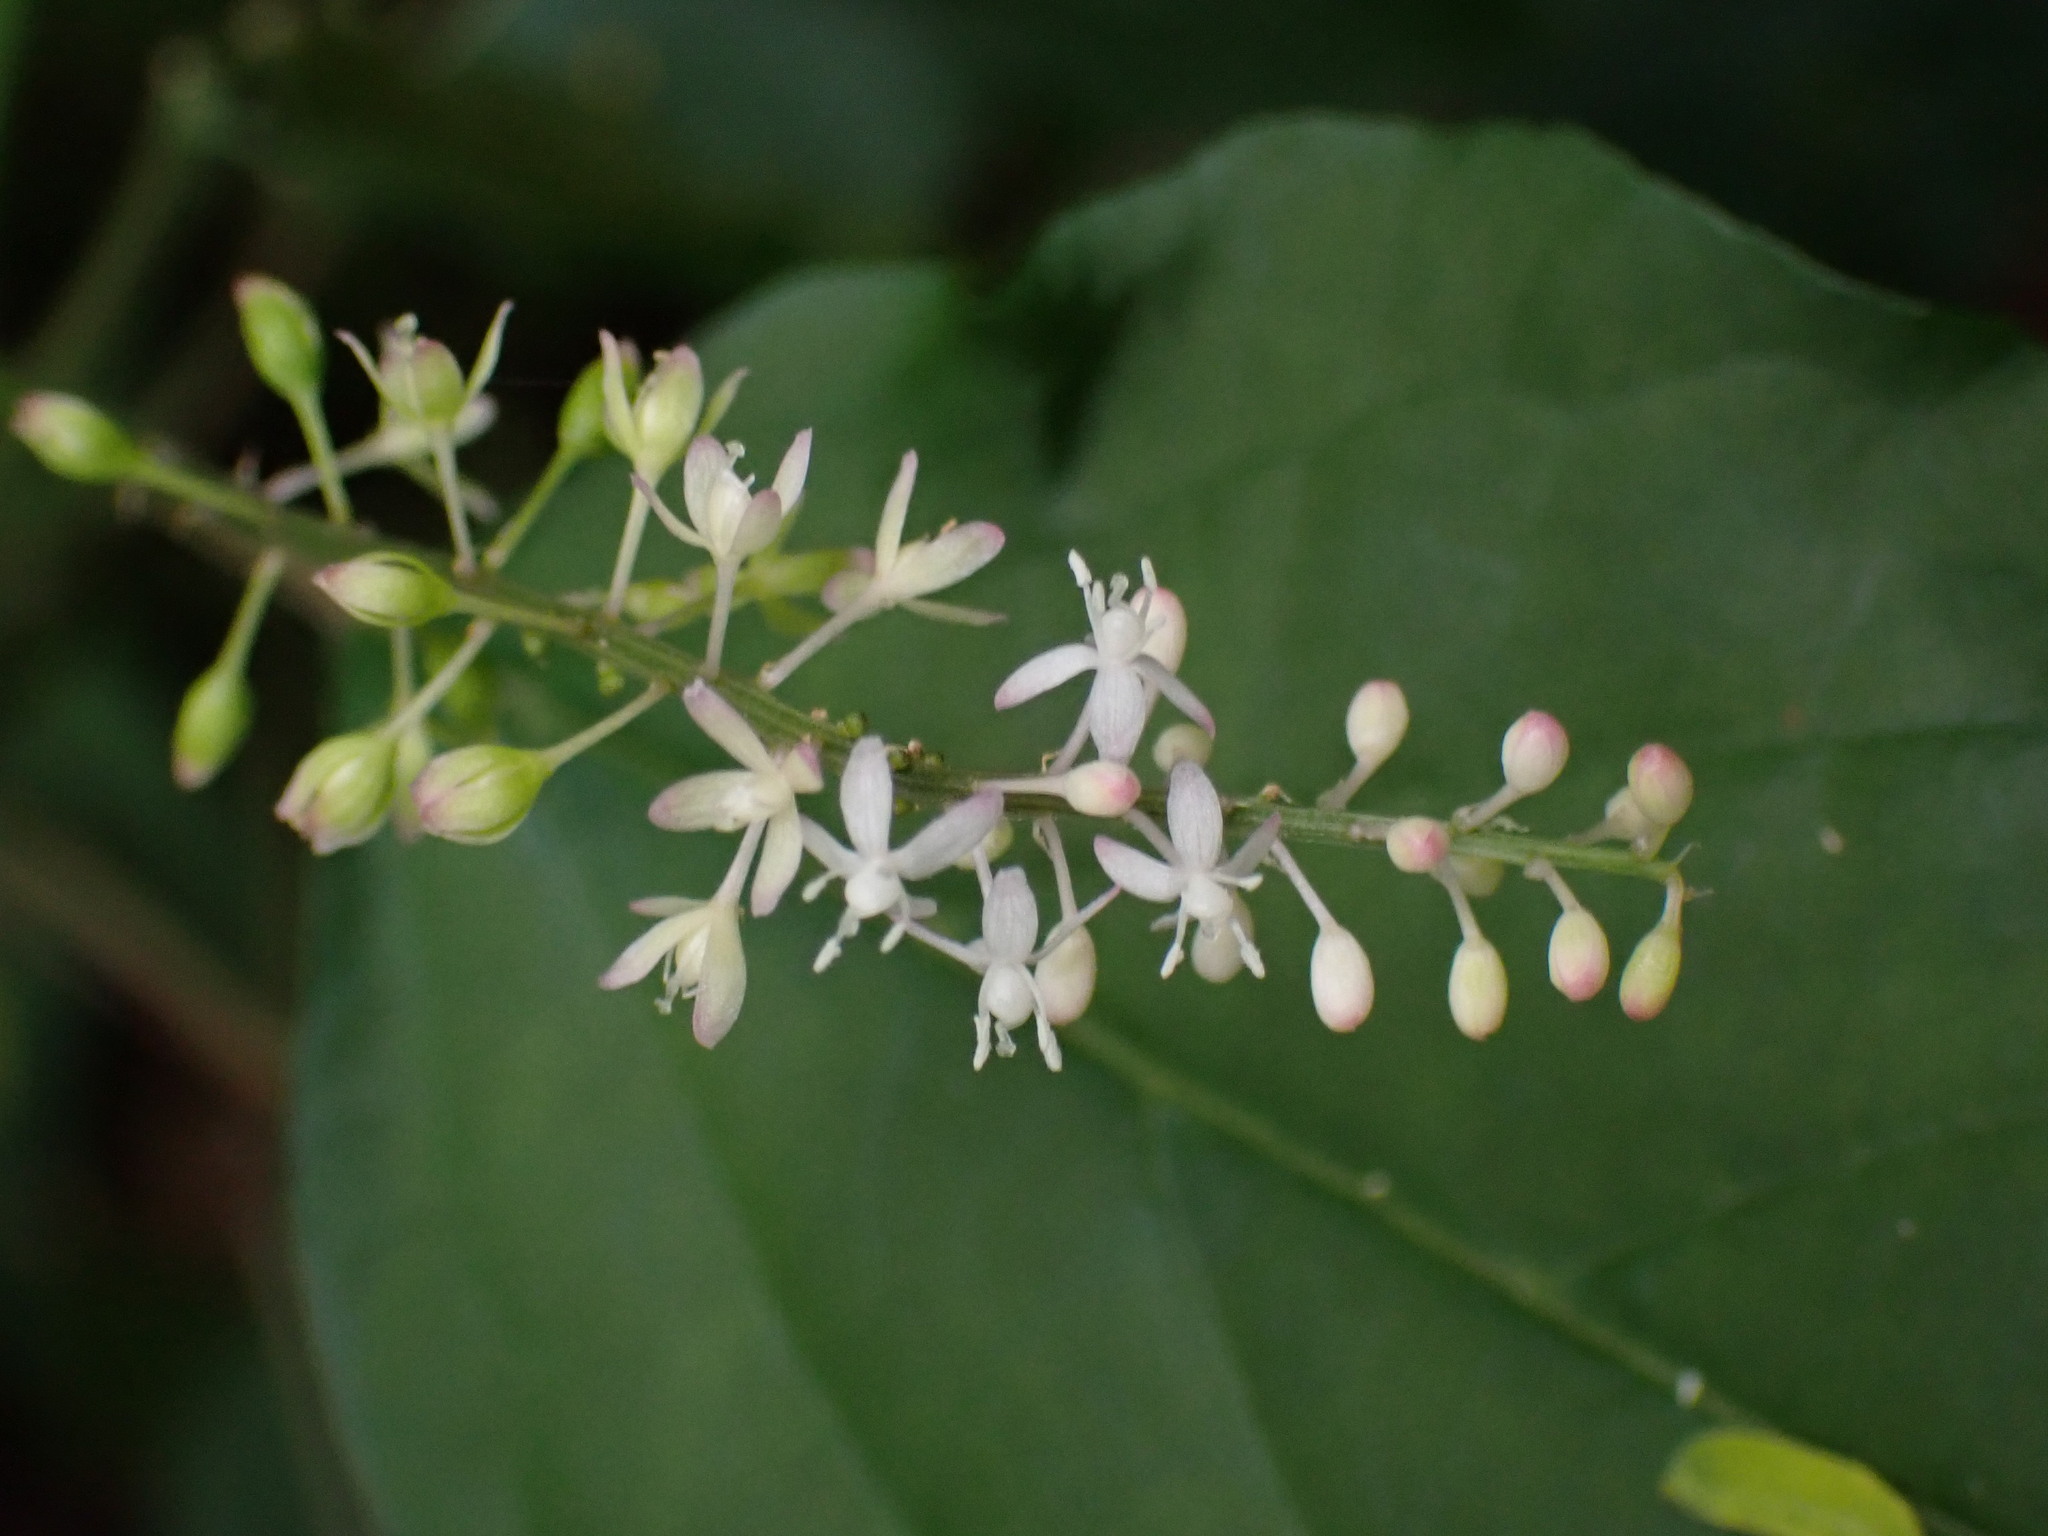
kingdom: Plantae
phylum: Tracheophyta
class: Magnoliopsida
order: Caryophyllales
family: Phytolaccaceae
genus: Rivina
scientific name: Rivina humilis
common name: Rougeplant
